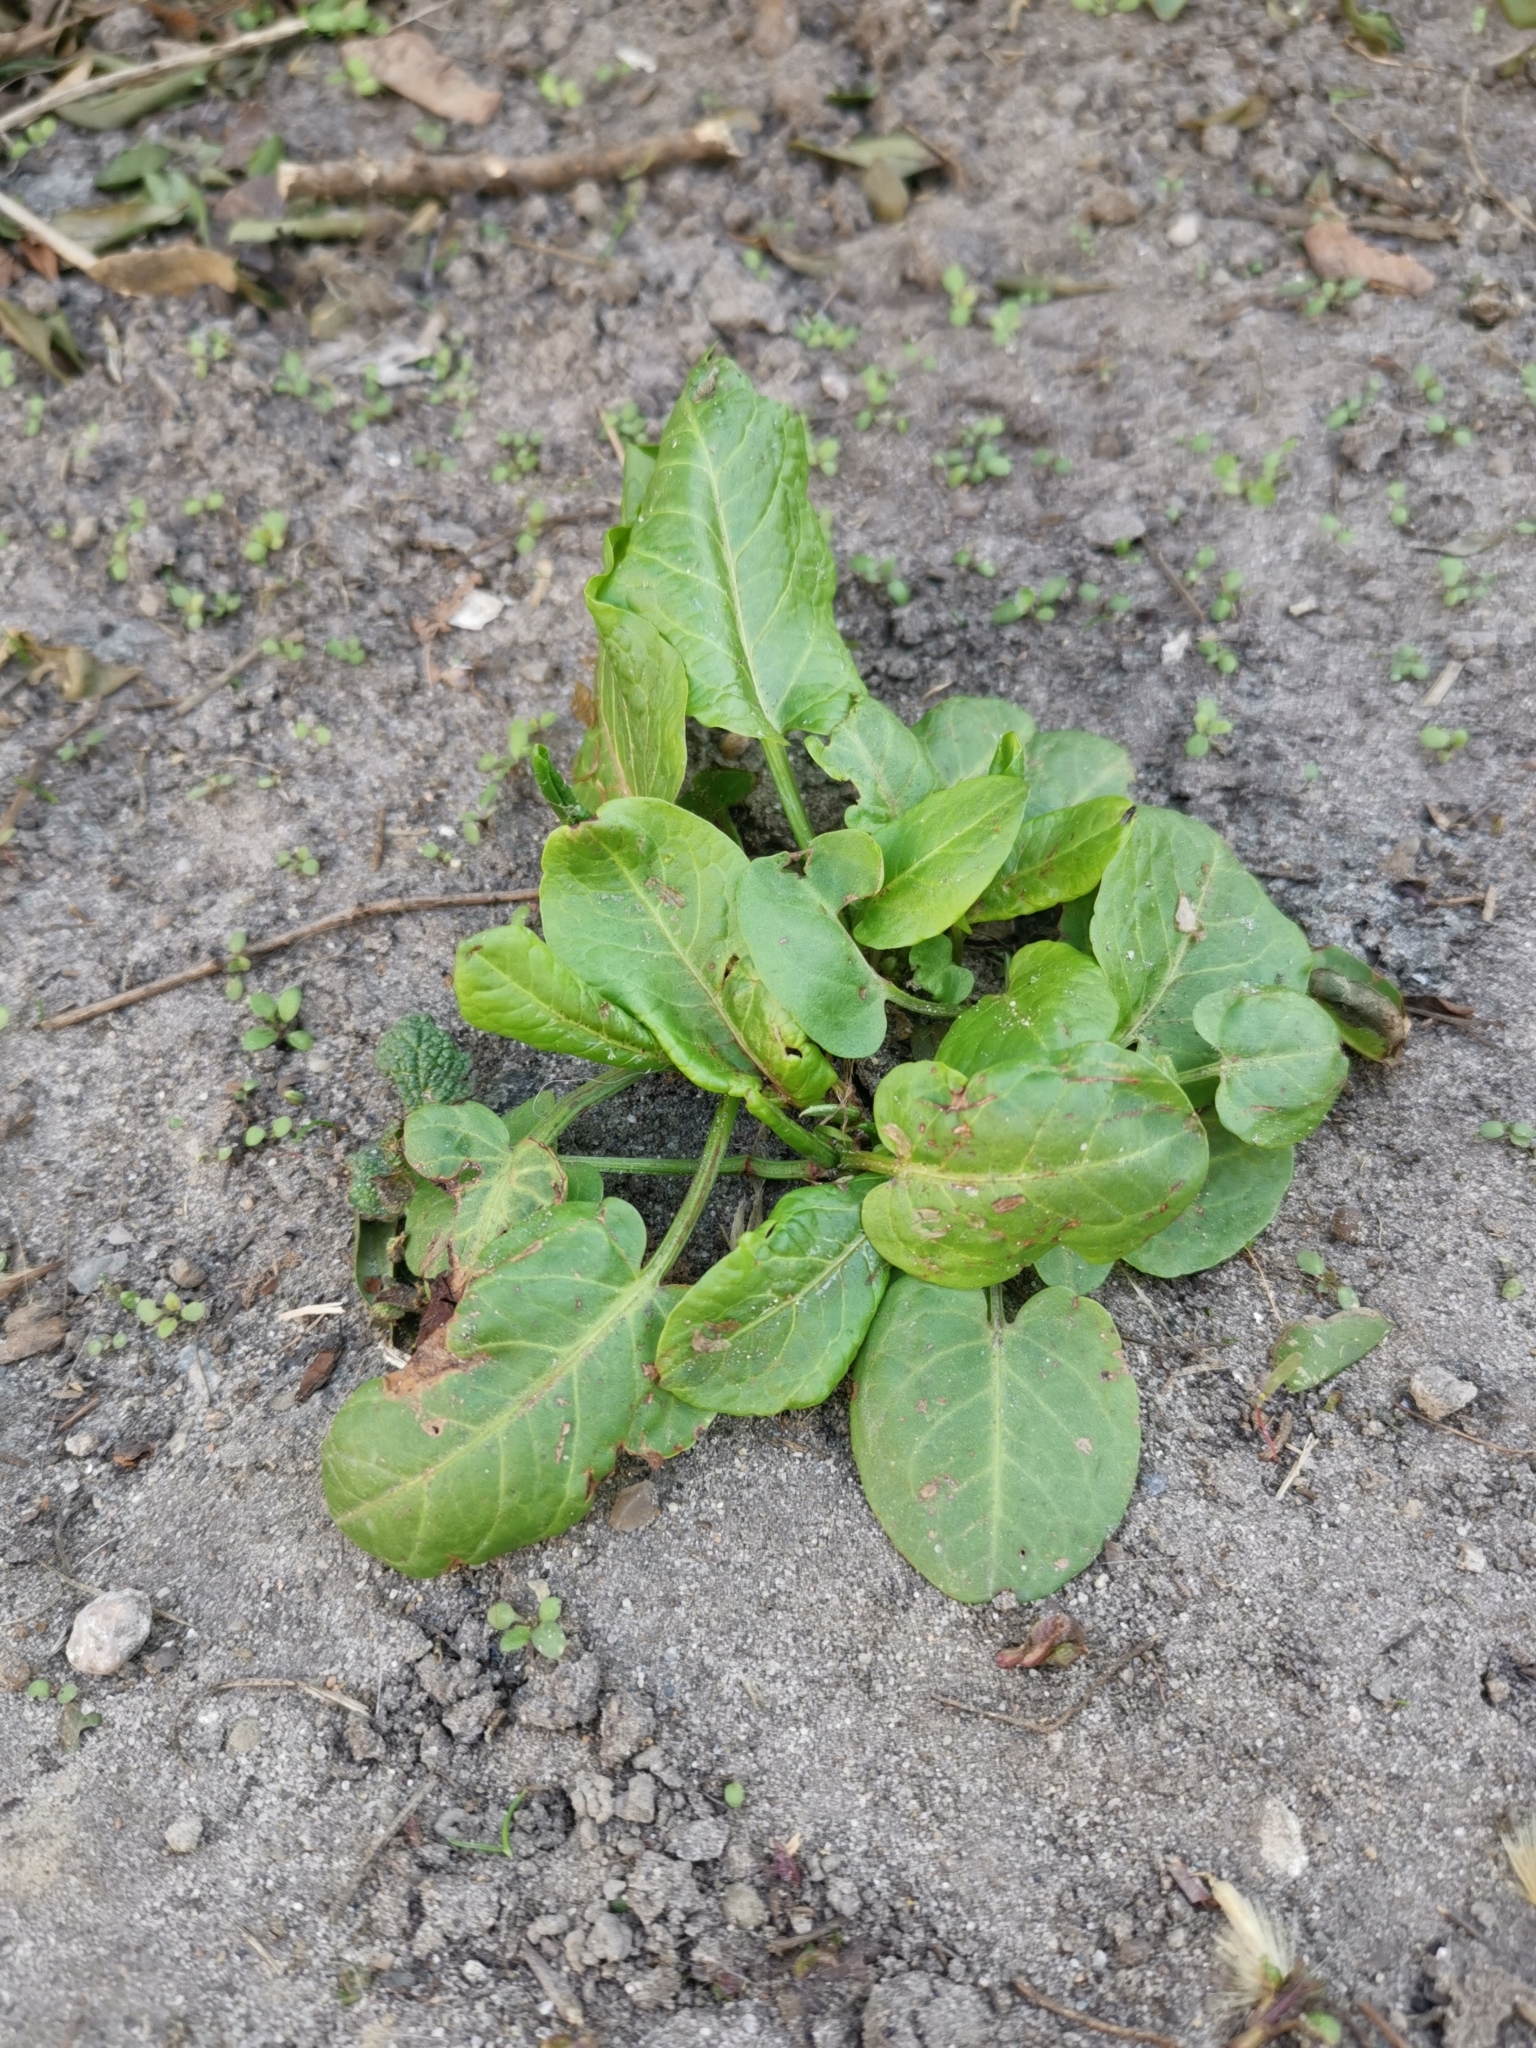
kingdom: Plantae
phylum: Tracheophyta
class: Magnoliopsida
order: Caryophyllales
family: Polygonaceae
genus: Rumex
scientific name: Rumex obtusifolius
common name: Bitter dock
